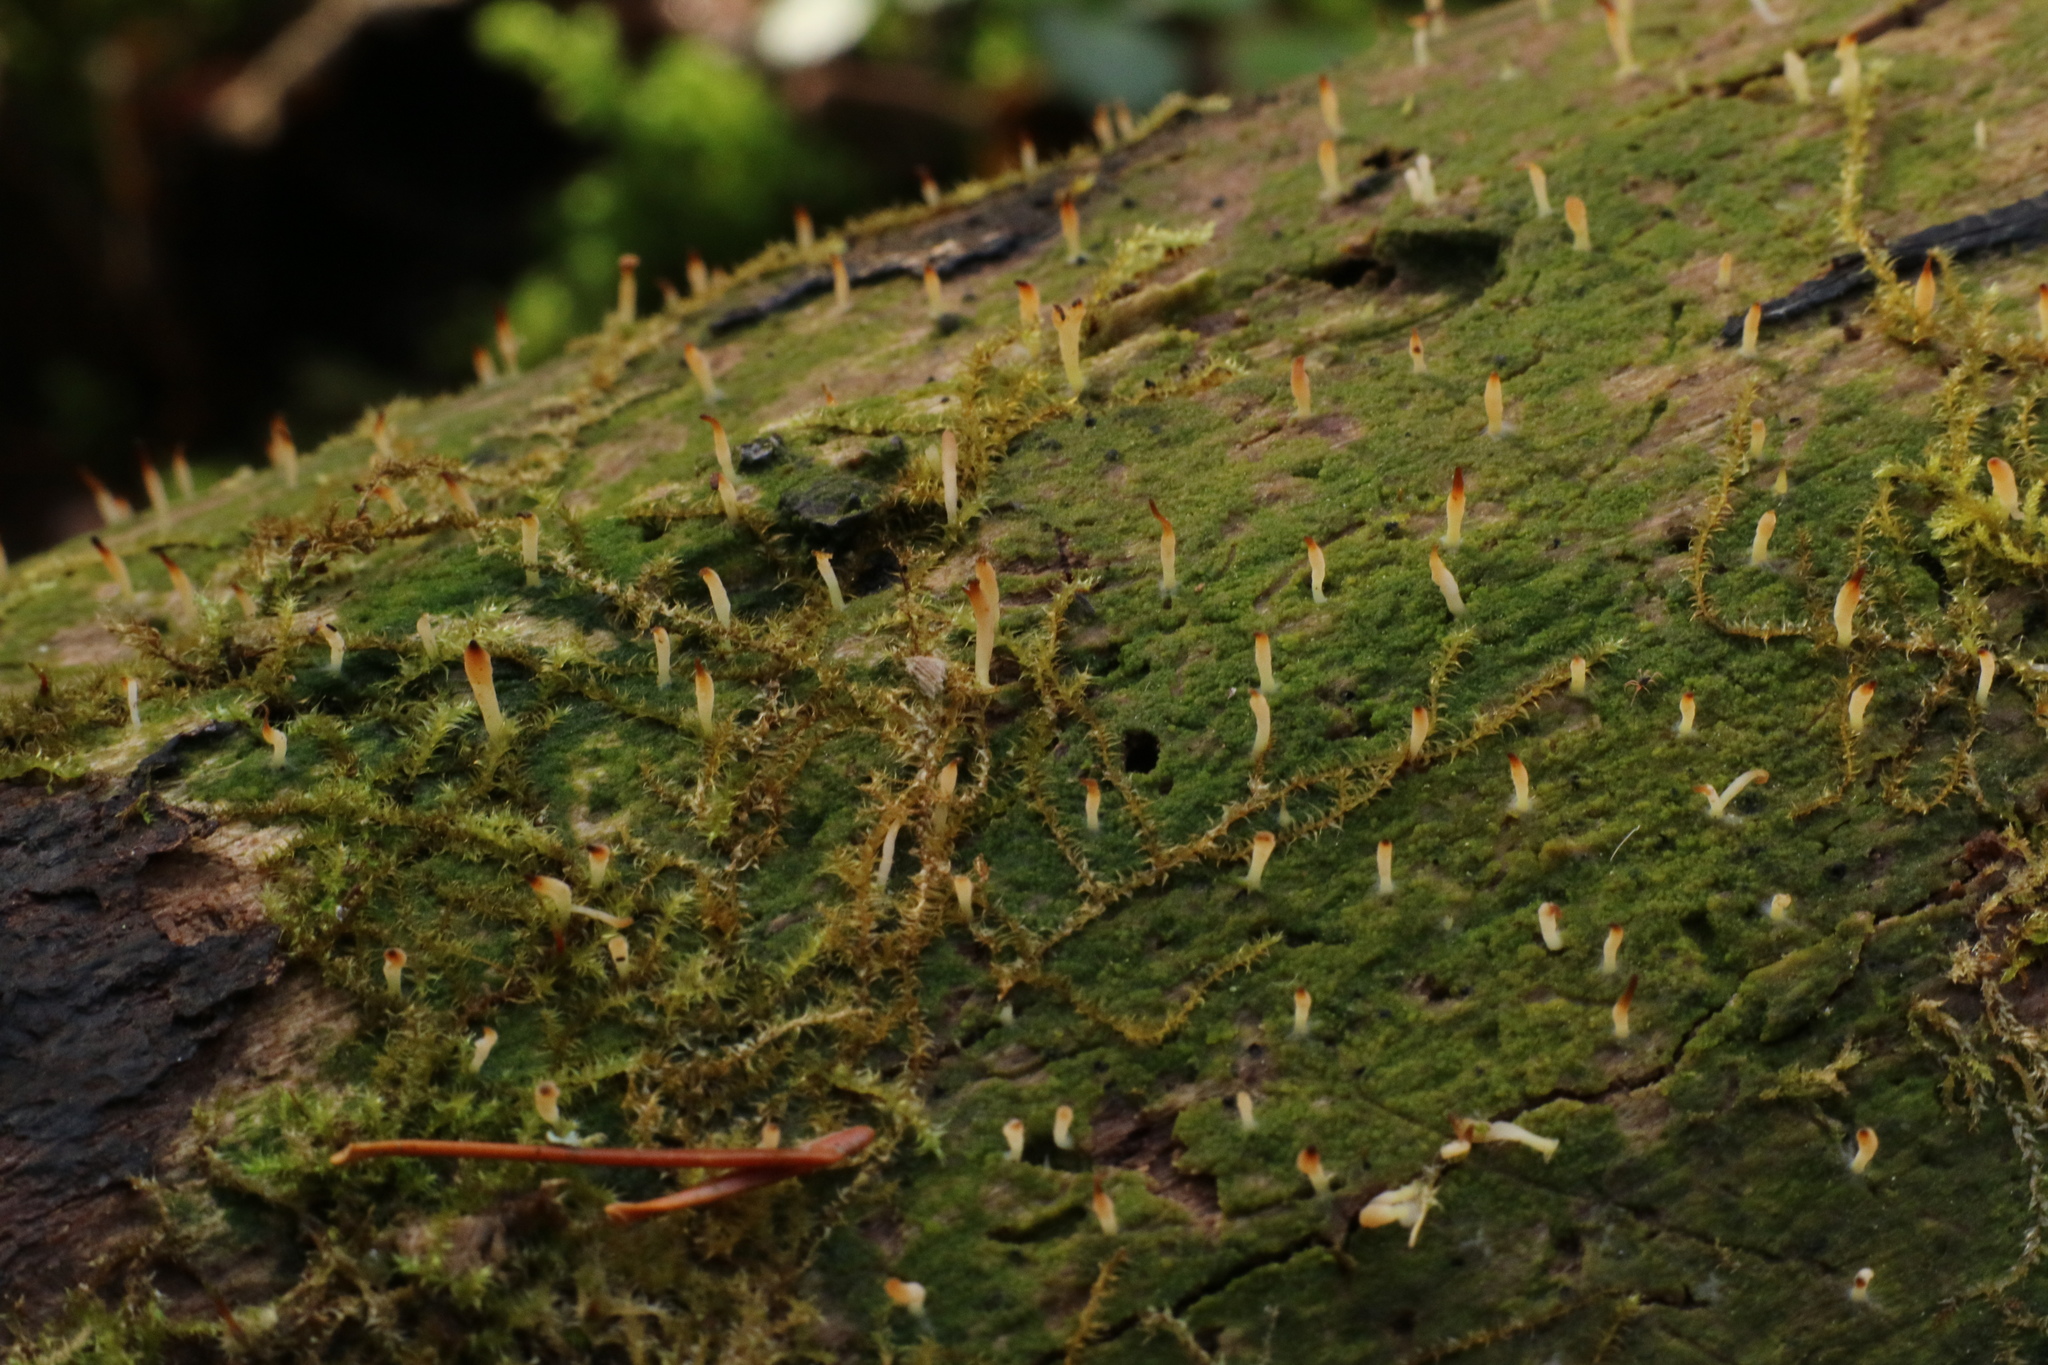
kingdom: Fungi
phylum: Basidiomycota
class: Agaricomycetes
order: Cantharellales
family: Hydnaceae
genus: Multiclavula
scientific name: Multiclavula mucida
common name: White green-algae coral
